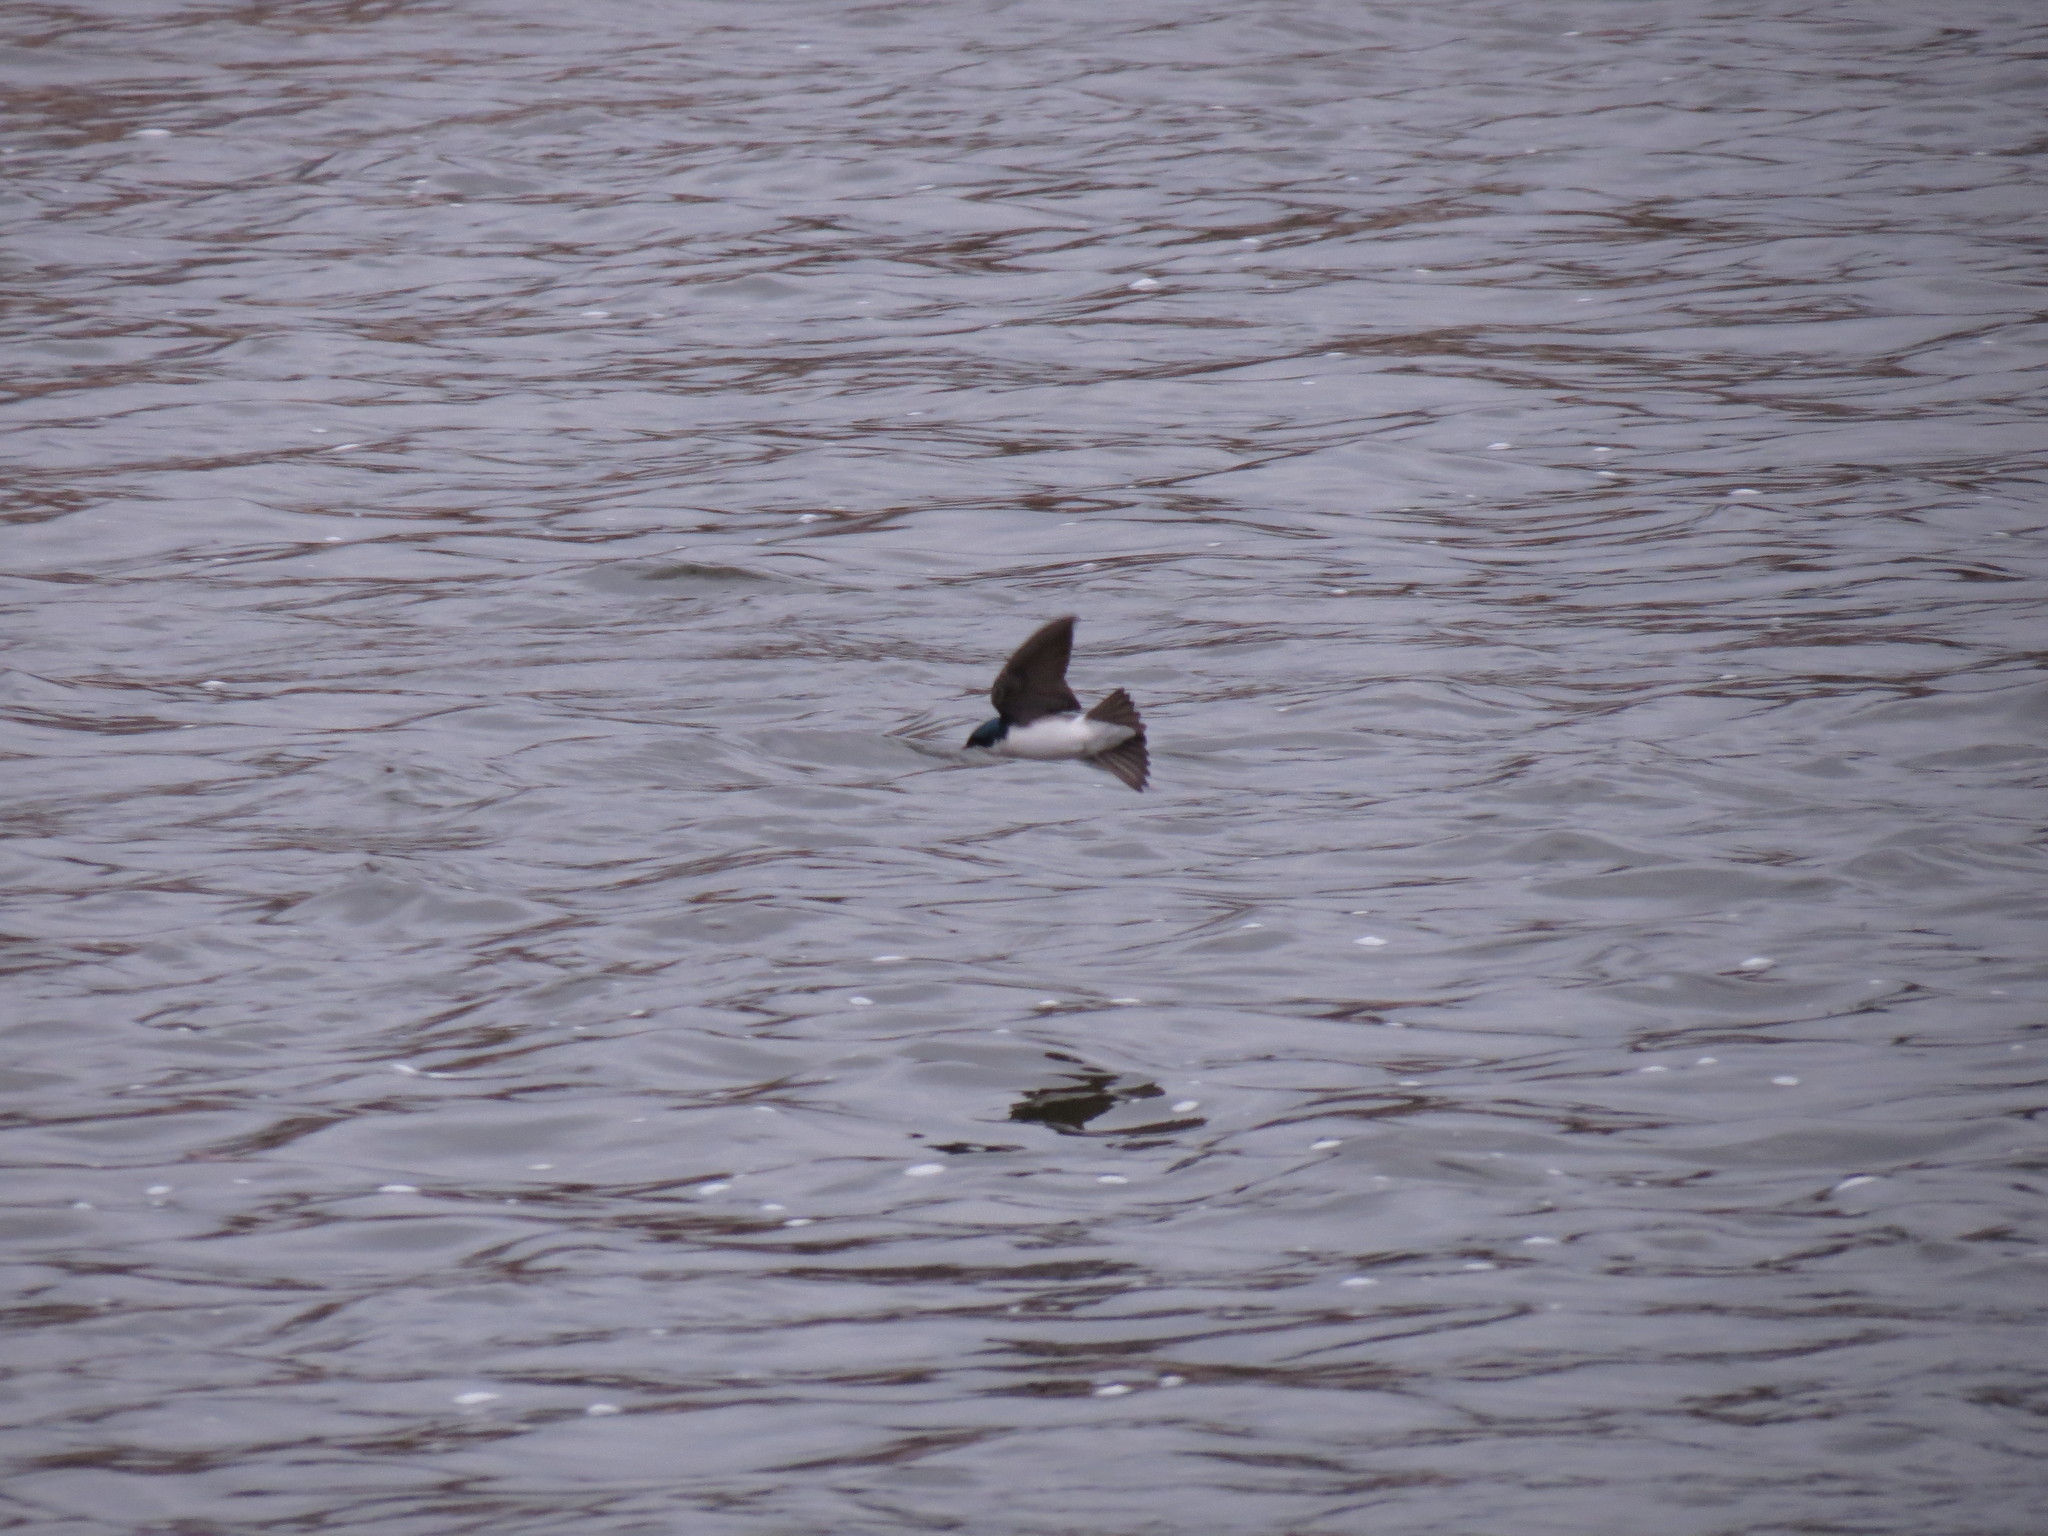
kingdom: Animalia
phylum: Chordata
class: Aves
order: Passeriformes
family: Hirundinidae
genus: Tachycineta
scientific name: Tachycineta bicolor
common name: Tree swallow
